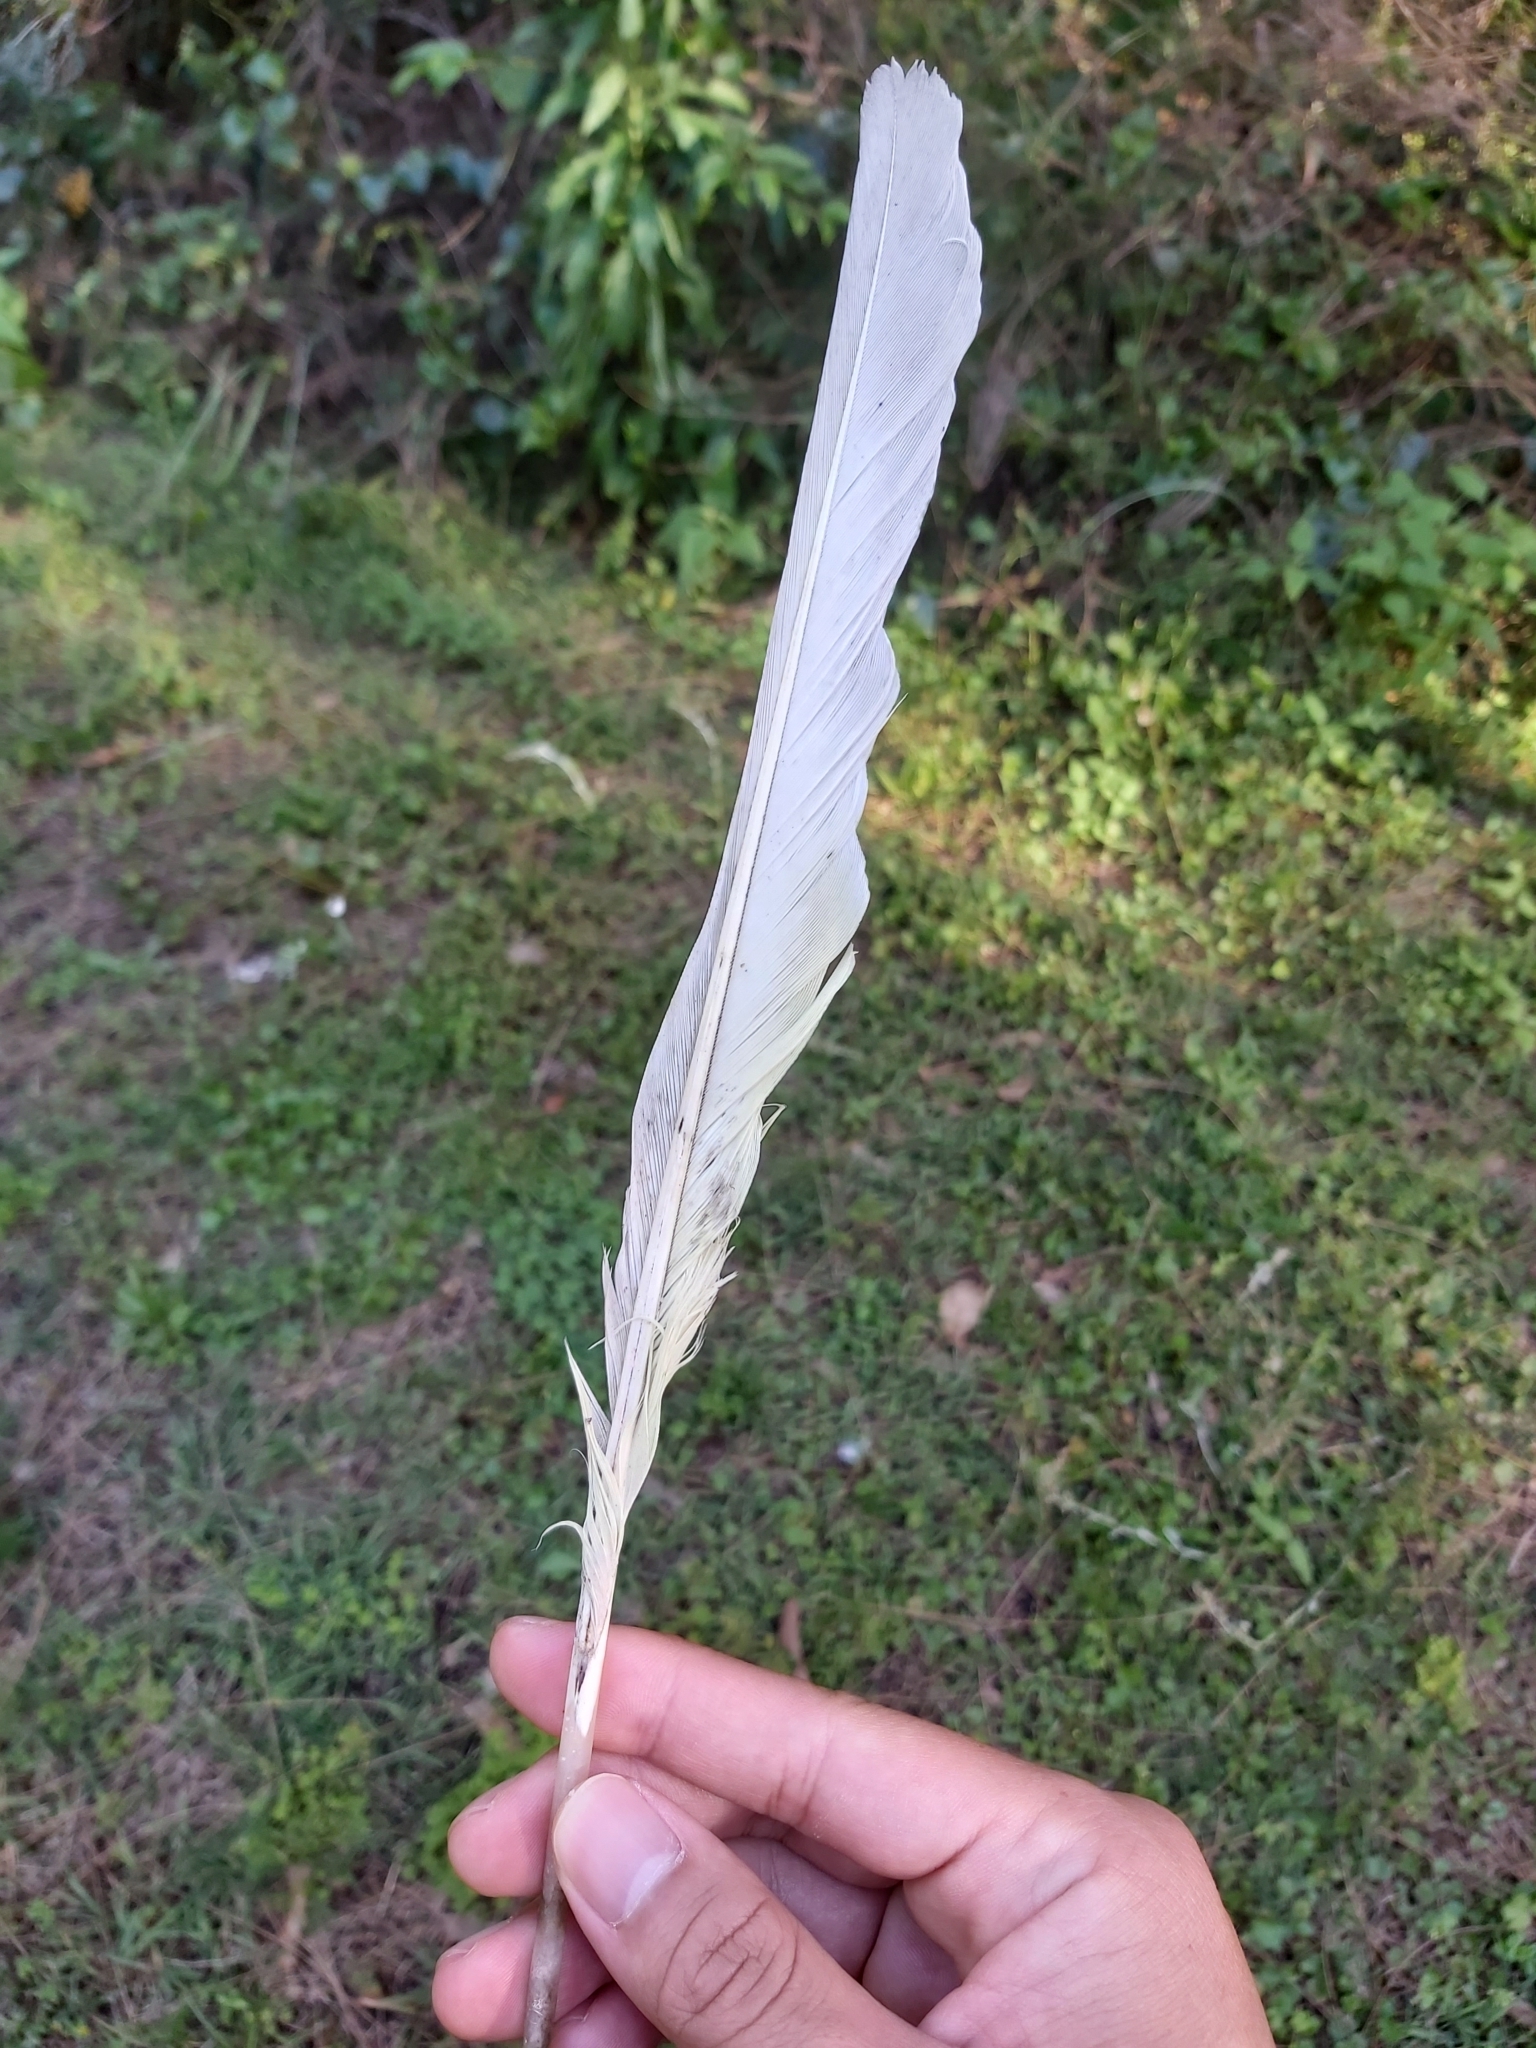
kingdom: Animalia
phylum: Chordata
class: Aves
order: Psittaciformes
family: Psittacidae
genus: Cacatua
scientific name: Cacatua galerita
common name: Sulphur-crested cockatoo
